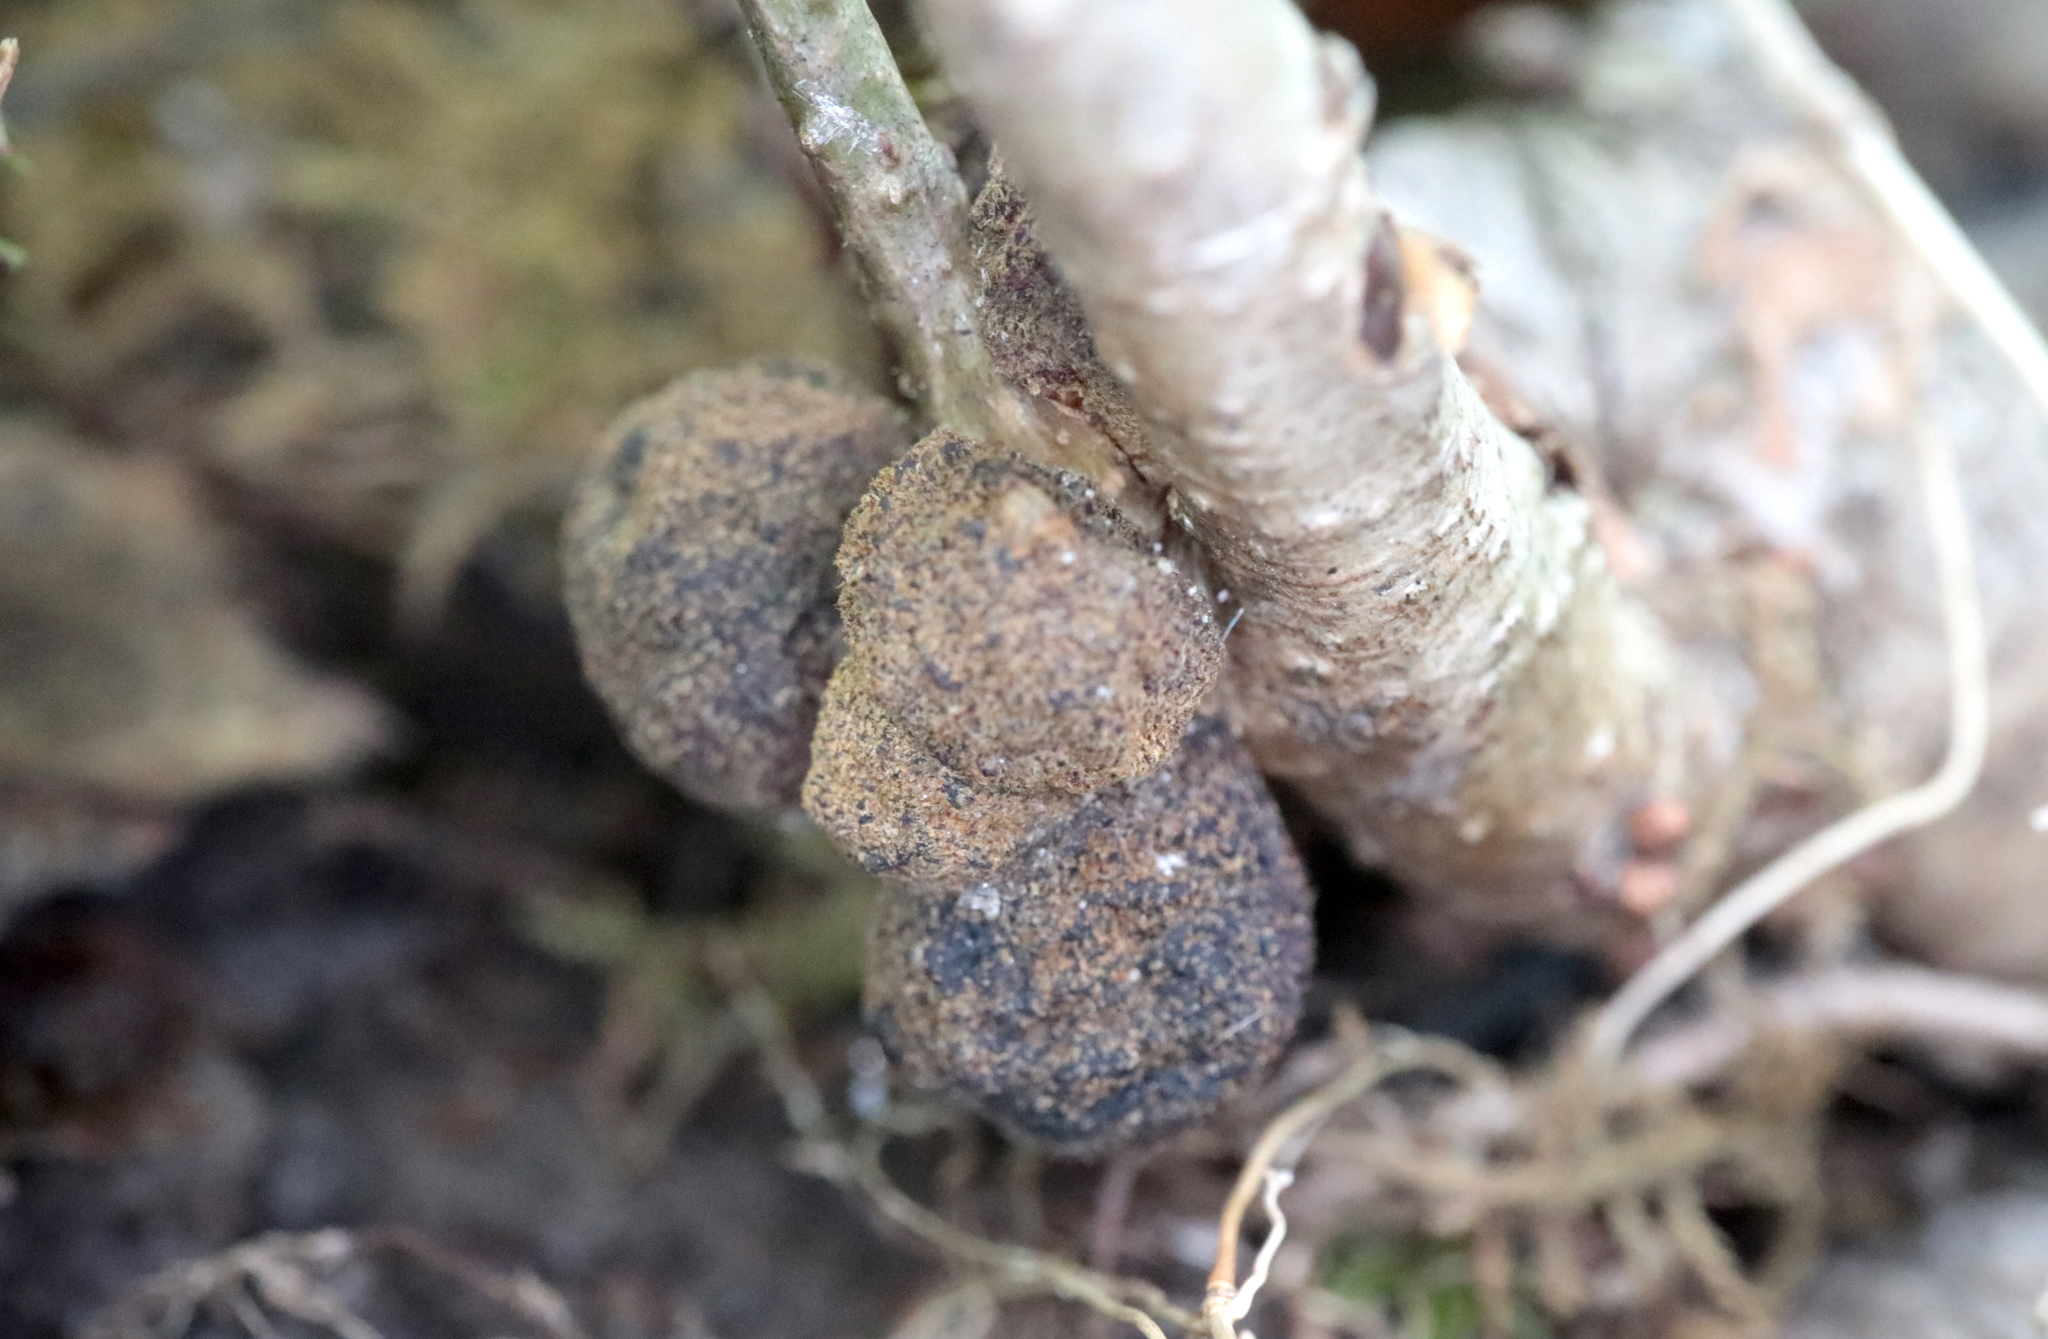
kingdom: Animalia
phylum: Arthropoda
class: Insecta
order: Hymenoptera
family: Cynipidae
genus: Holocynips
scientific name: Holocynips
